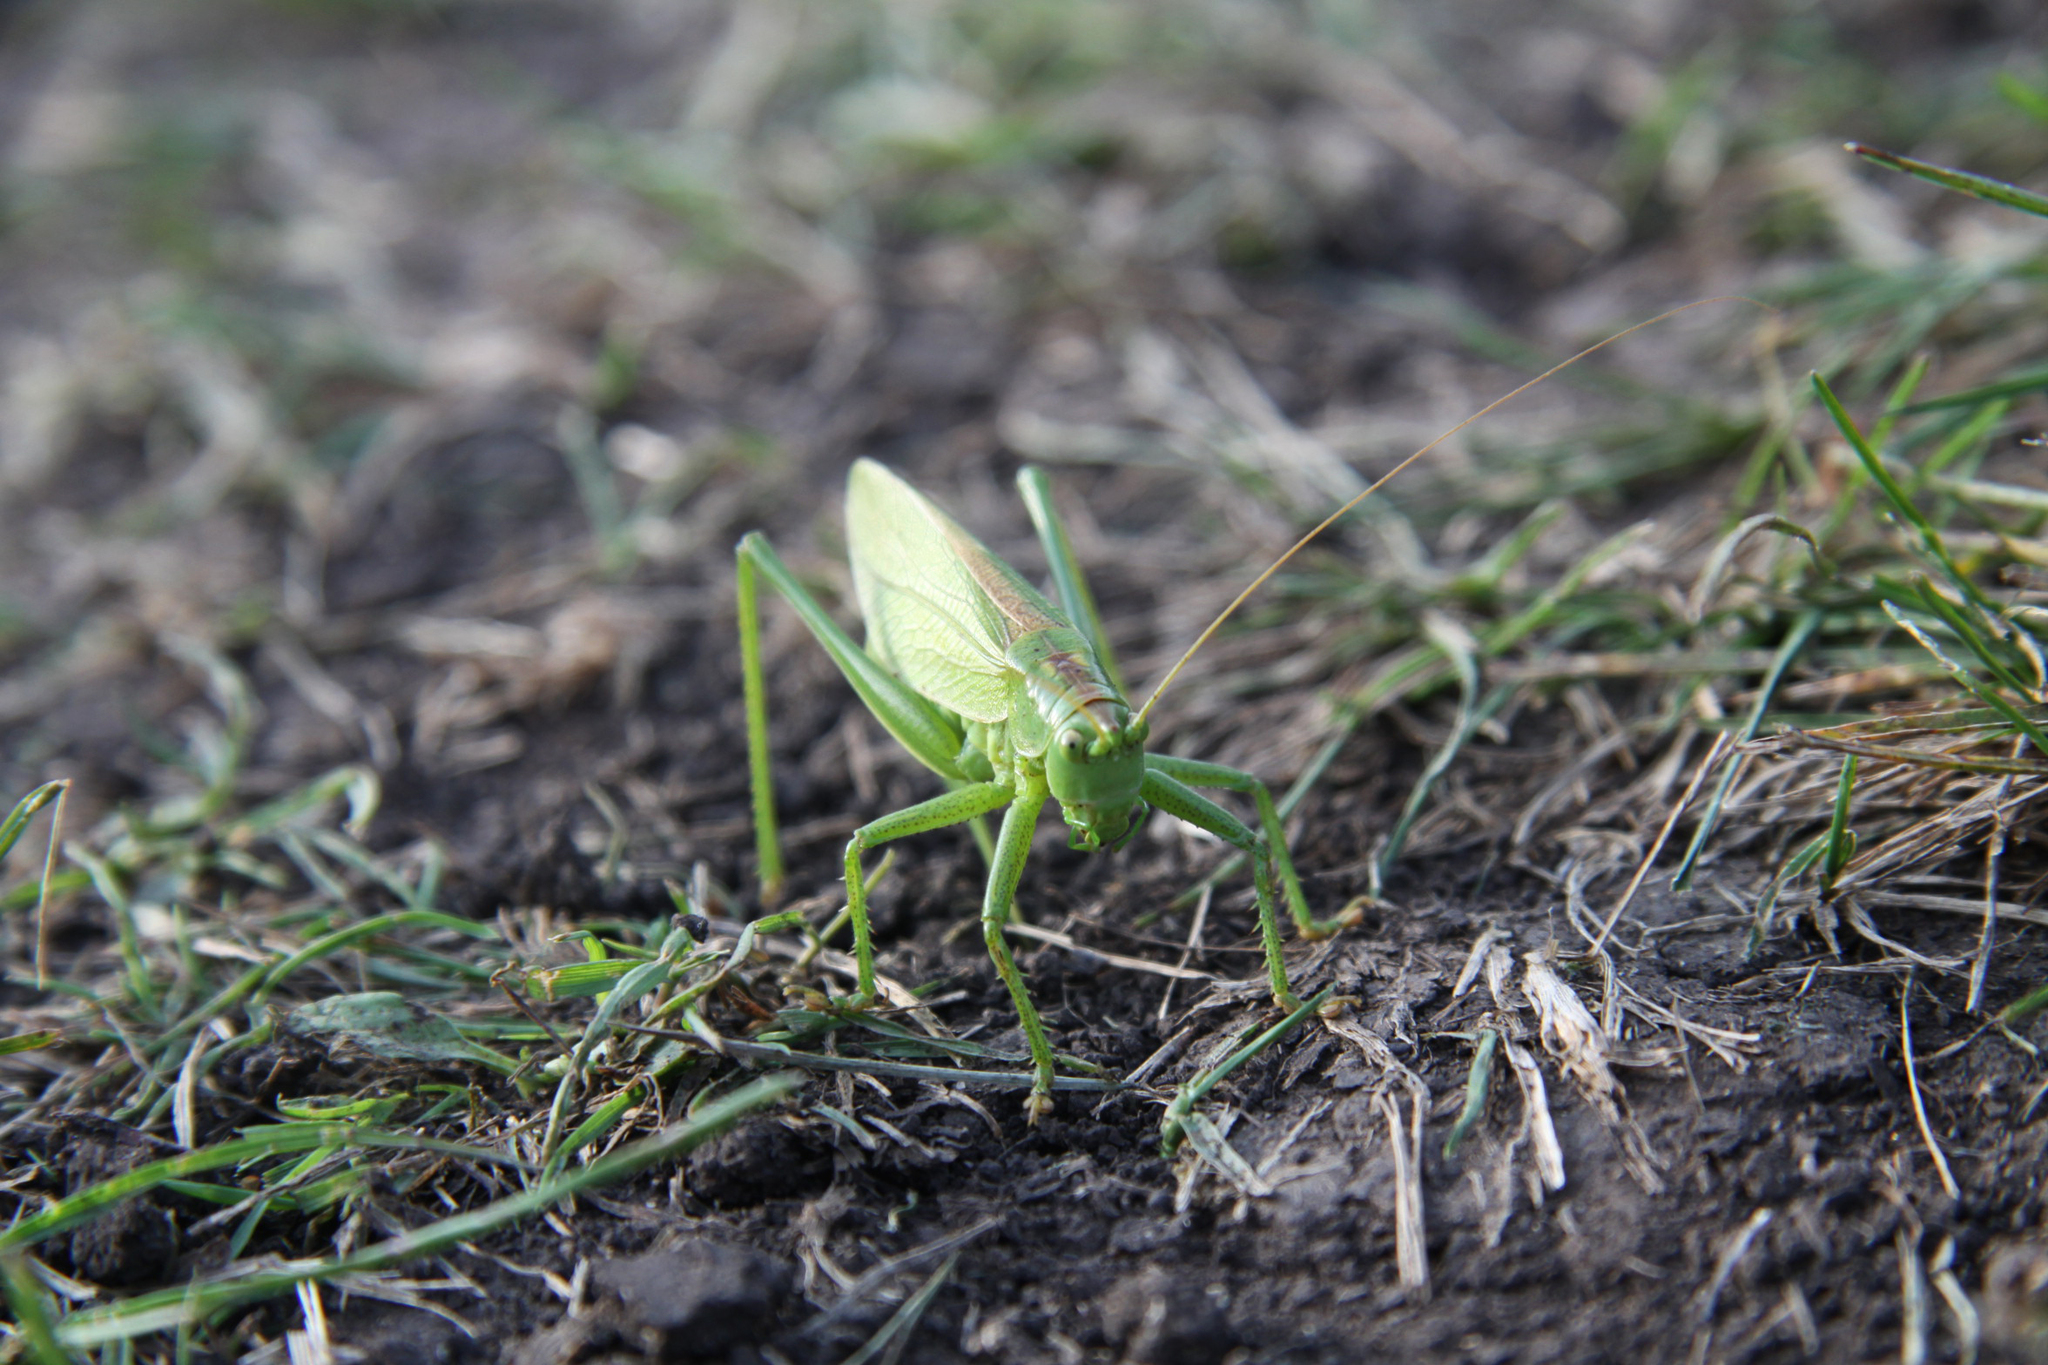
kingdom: Animalia
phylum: Arthropoda
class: Insecta
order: Orthoptera
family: Tettigoniidae
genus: Tettigonia
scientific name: Tettigonia cantans
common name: Upland green bush-cricket
